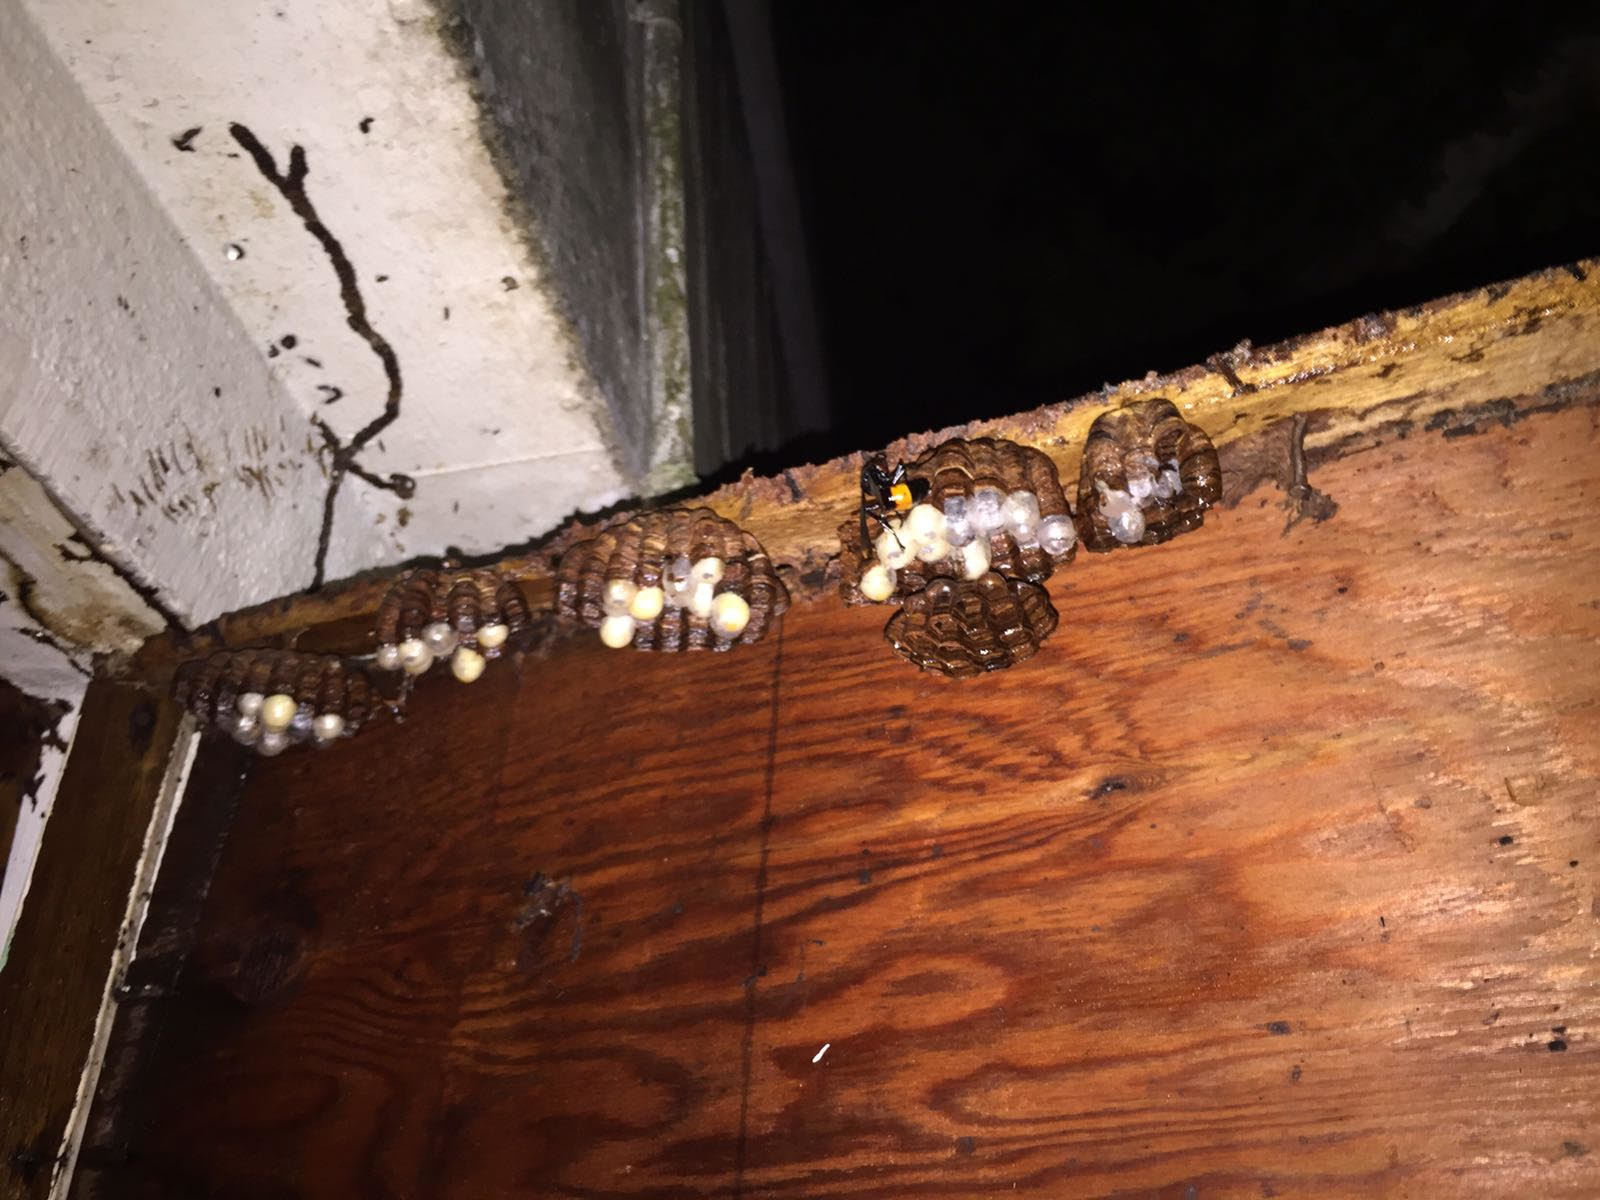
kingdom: Animalia
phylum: Arthropoda
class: Insecta
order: Hymenoptera
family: Vespidae
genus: Vespa
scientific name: Vespa tropica
